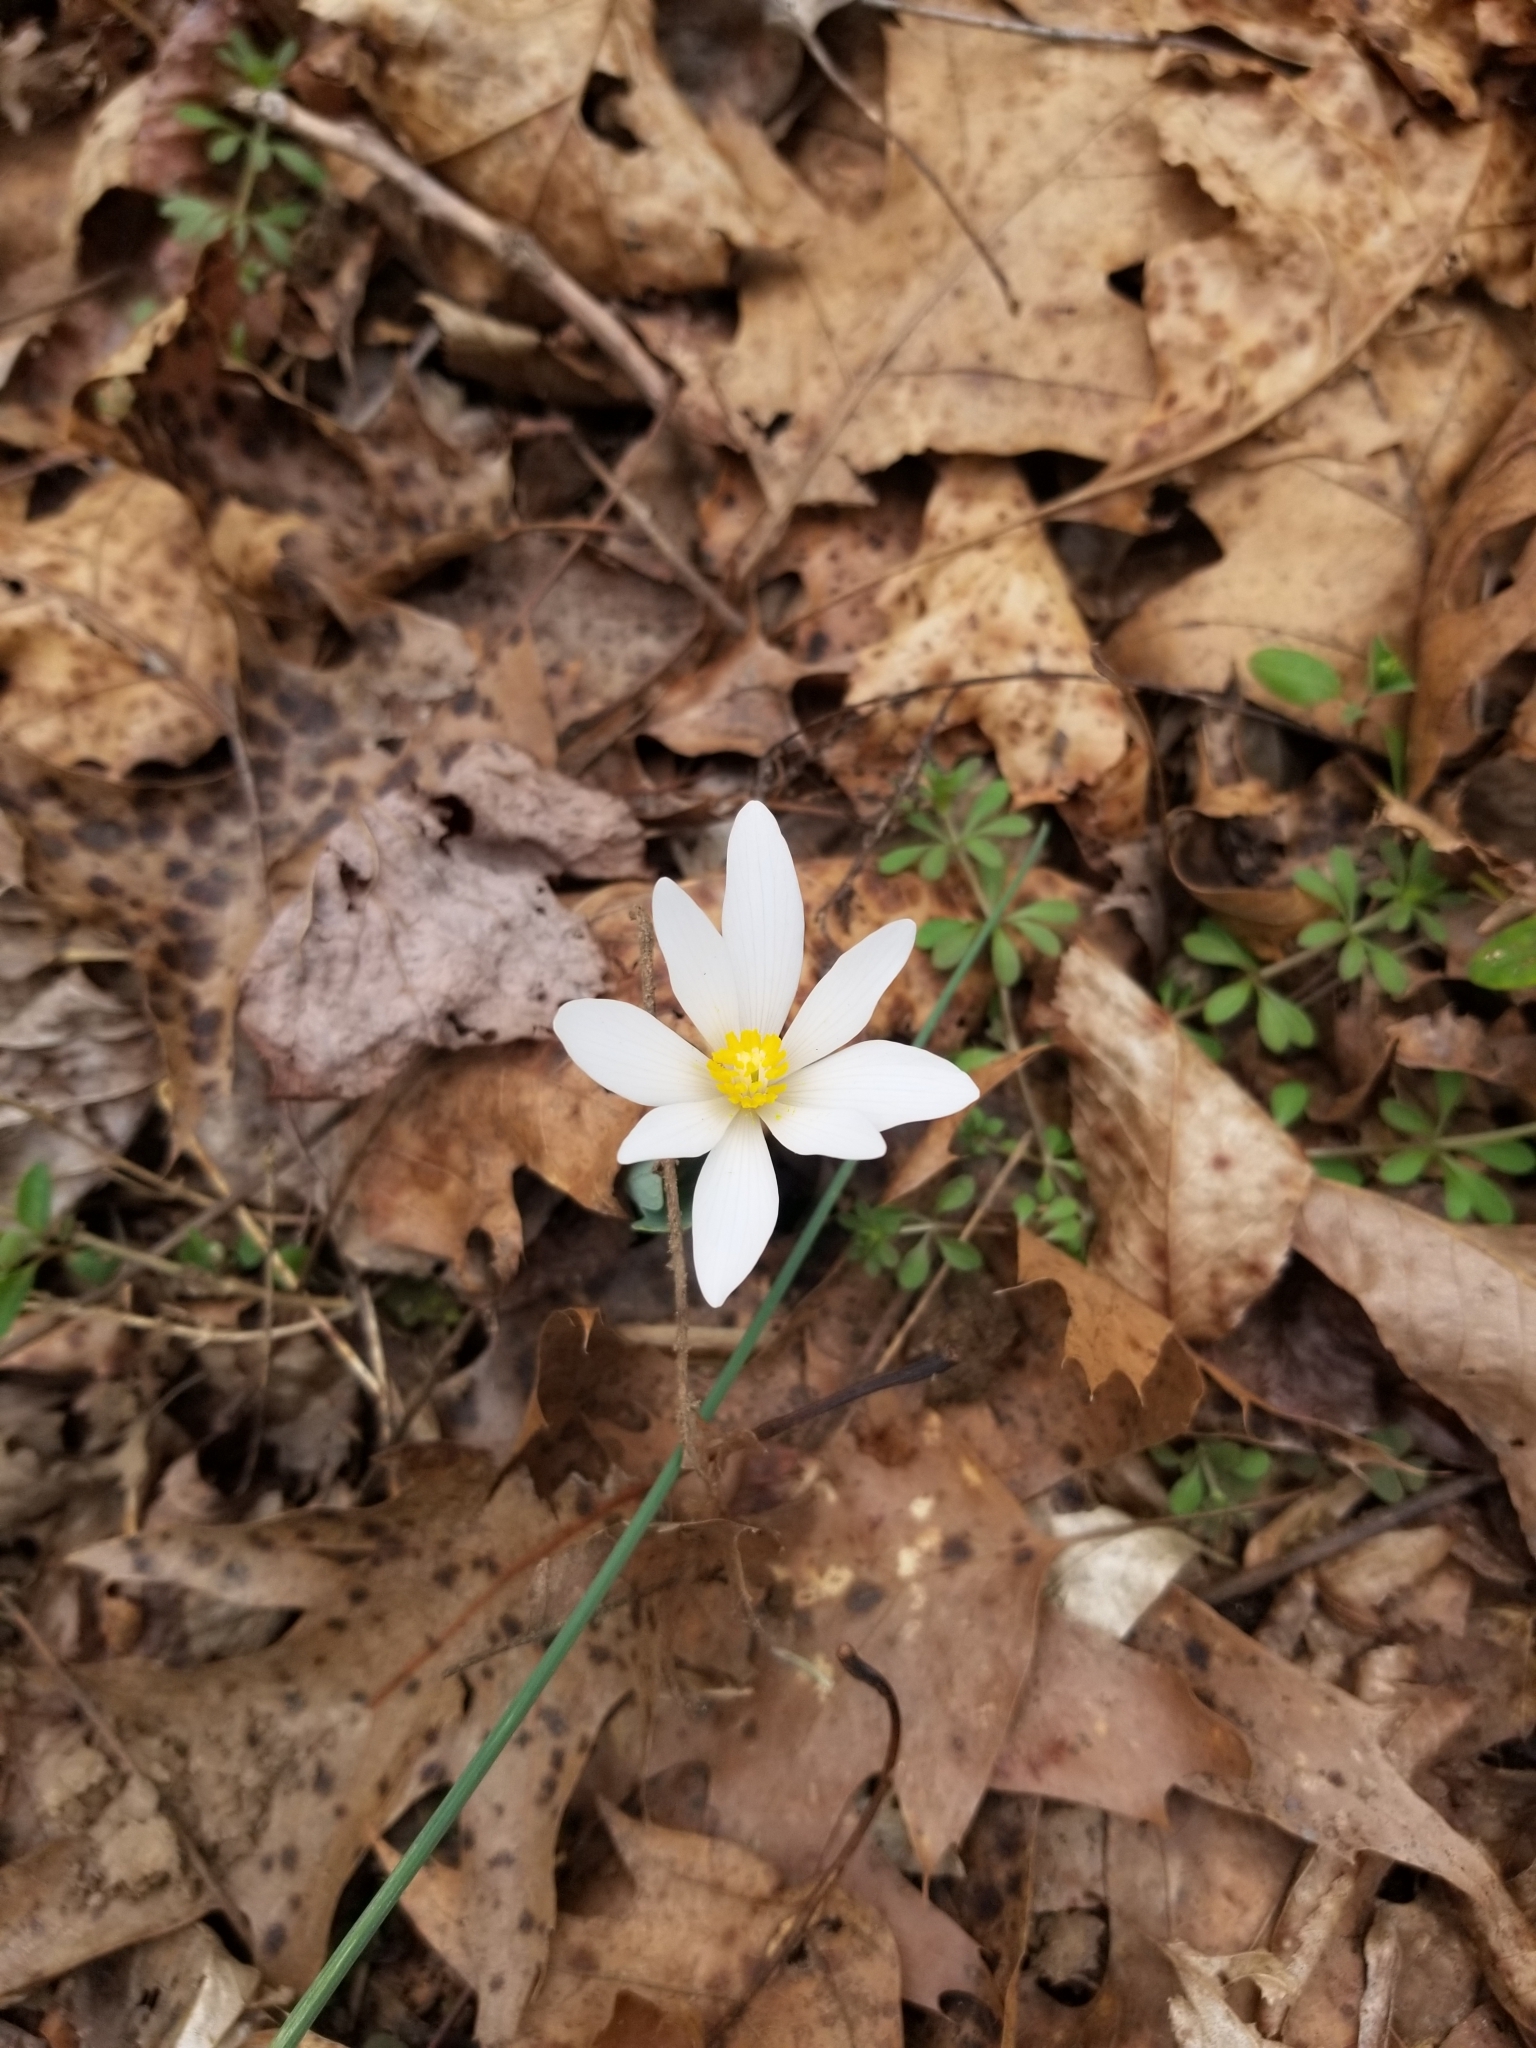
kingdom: Plantae
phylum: Tracheophyta
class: Magnoliopsida
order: Ranunculales
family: Papaveraceae
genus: Sanguinaria
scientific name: Sanguinaria canadensis
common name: Bloodroot
